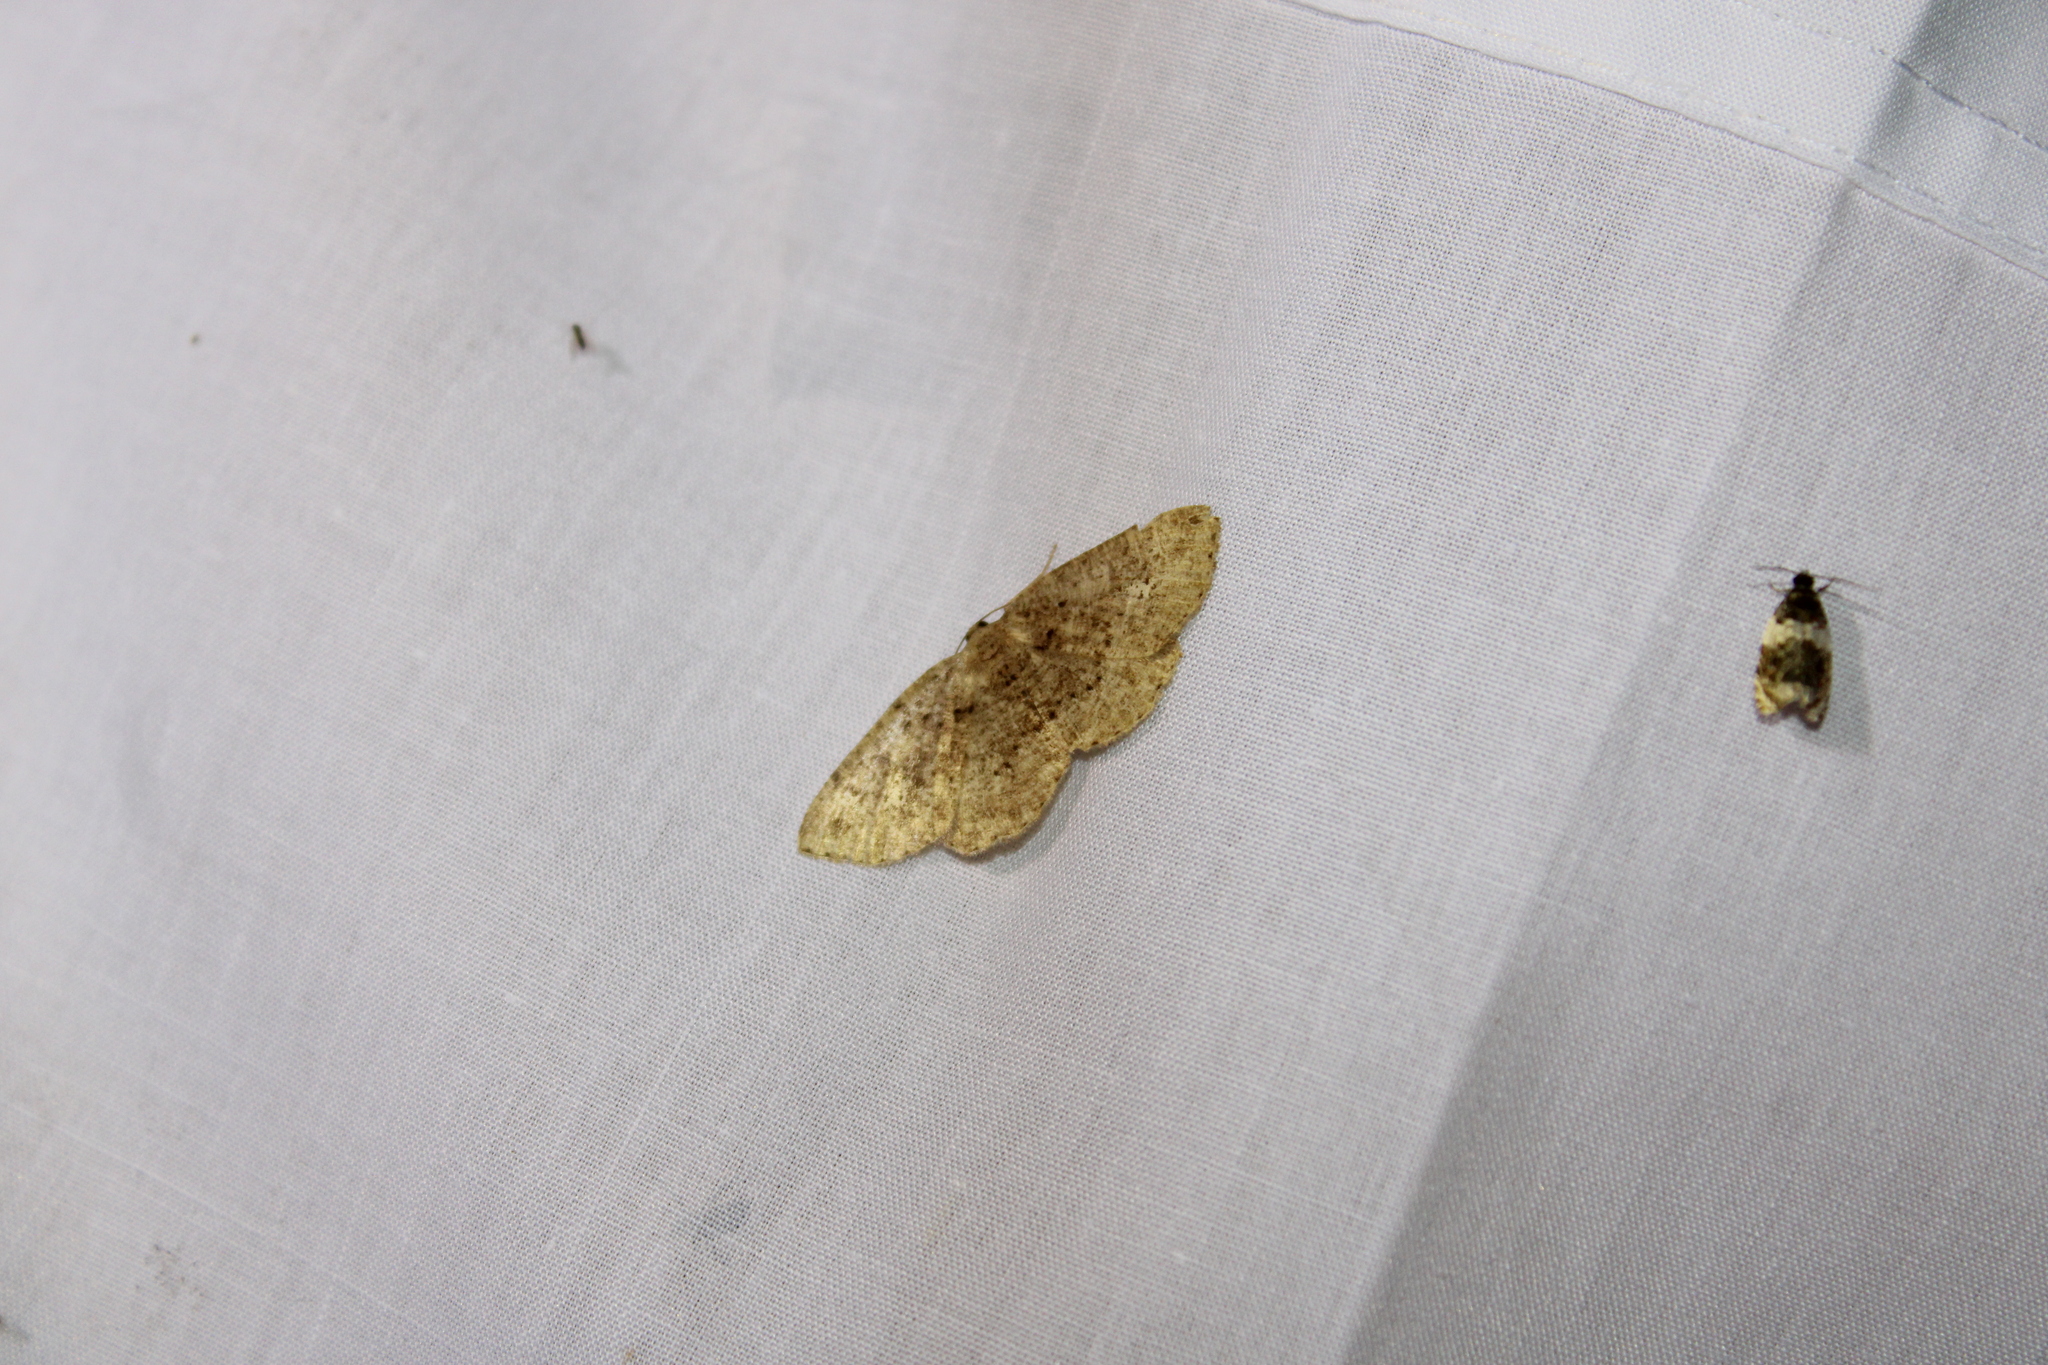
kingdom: Animalia
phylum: Arthropoda
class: Insecta
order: Lepidoptera
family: Geometridae
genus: Homochlodes
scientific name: Homochlodes fritillaria
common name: Pale homochlodes
